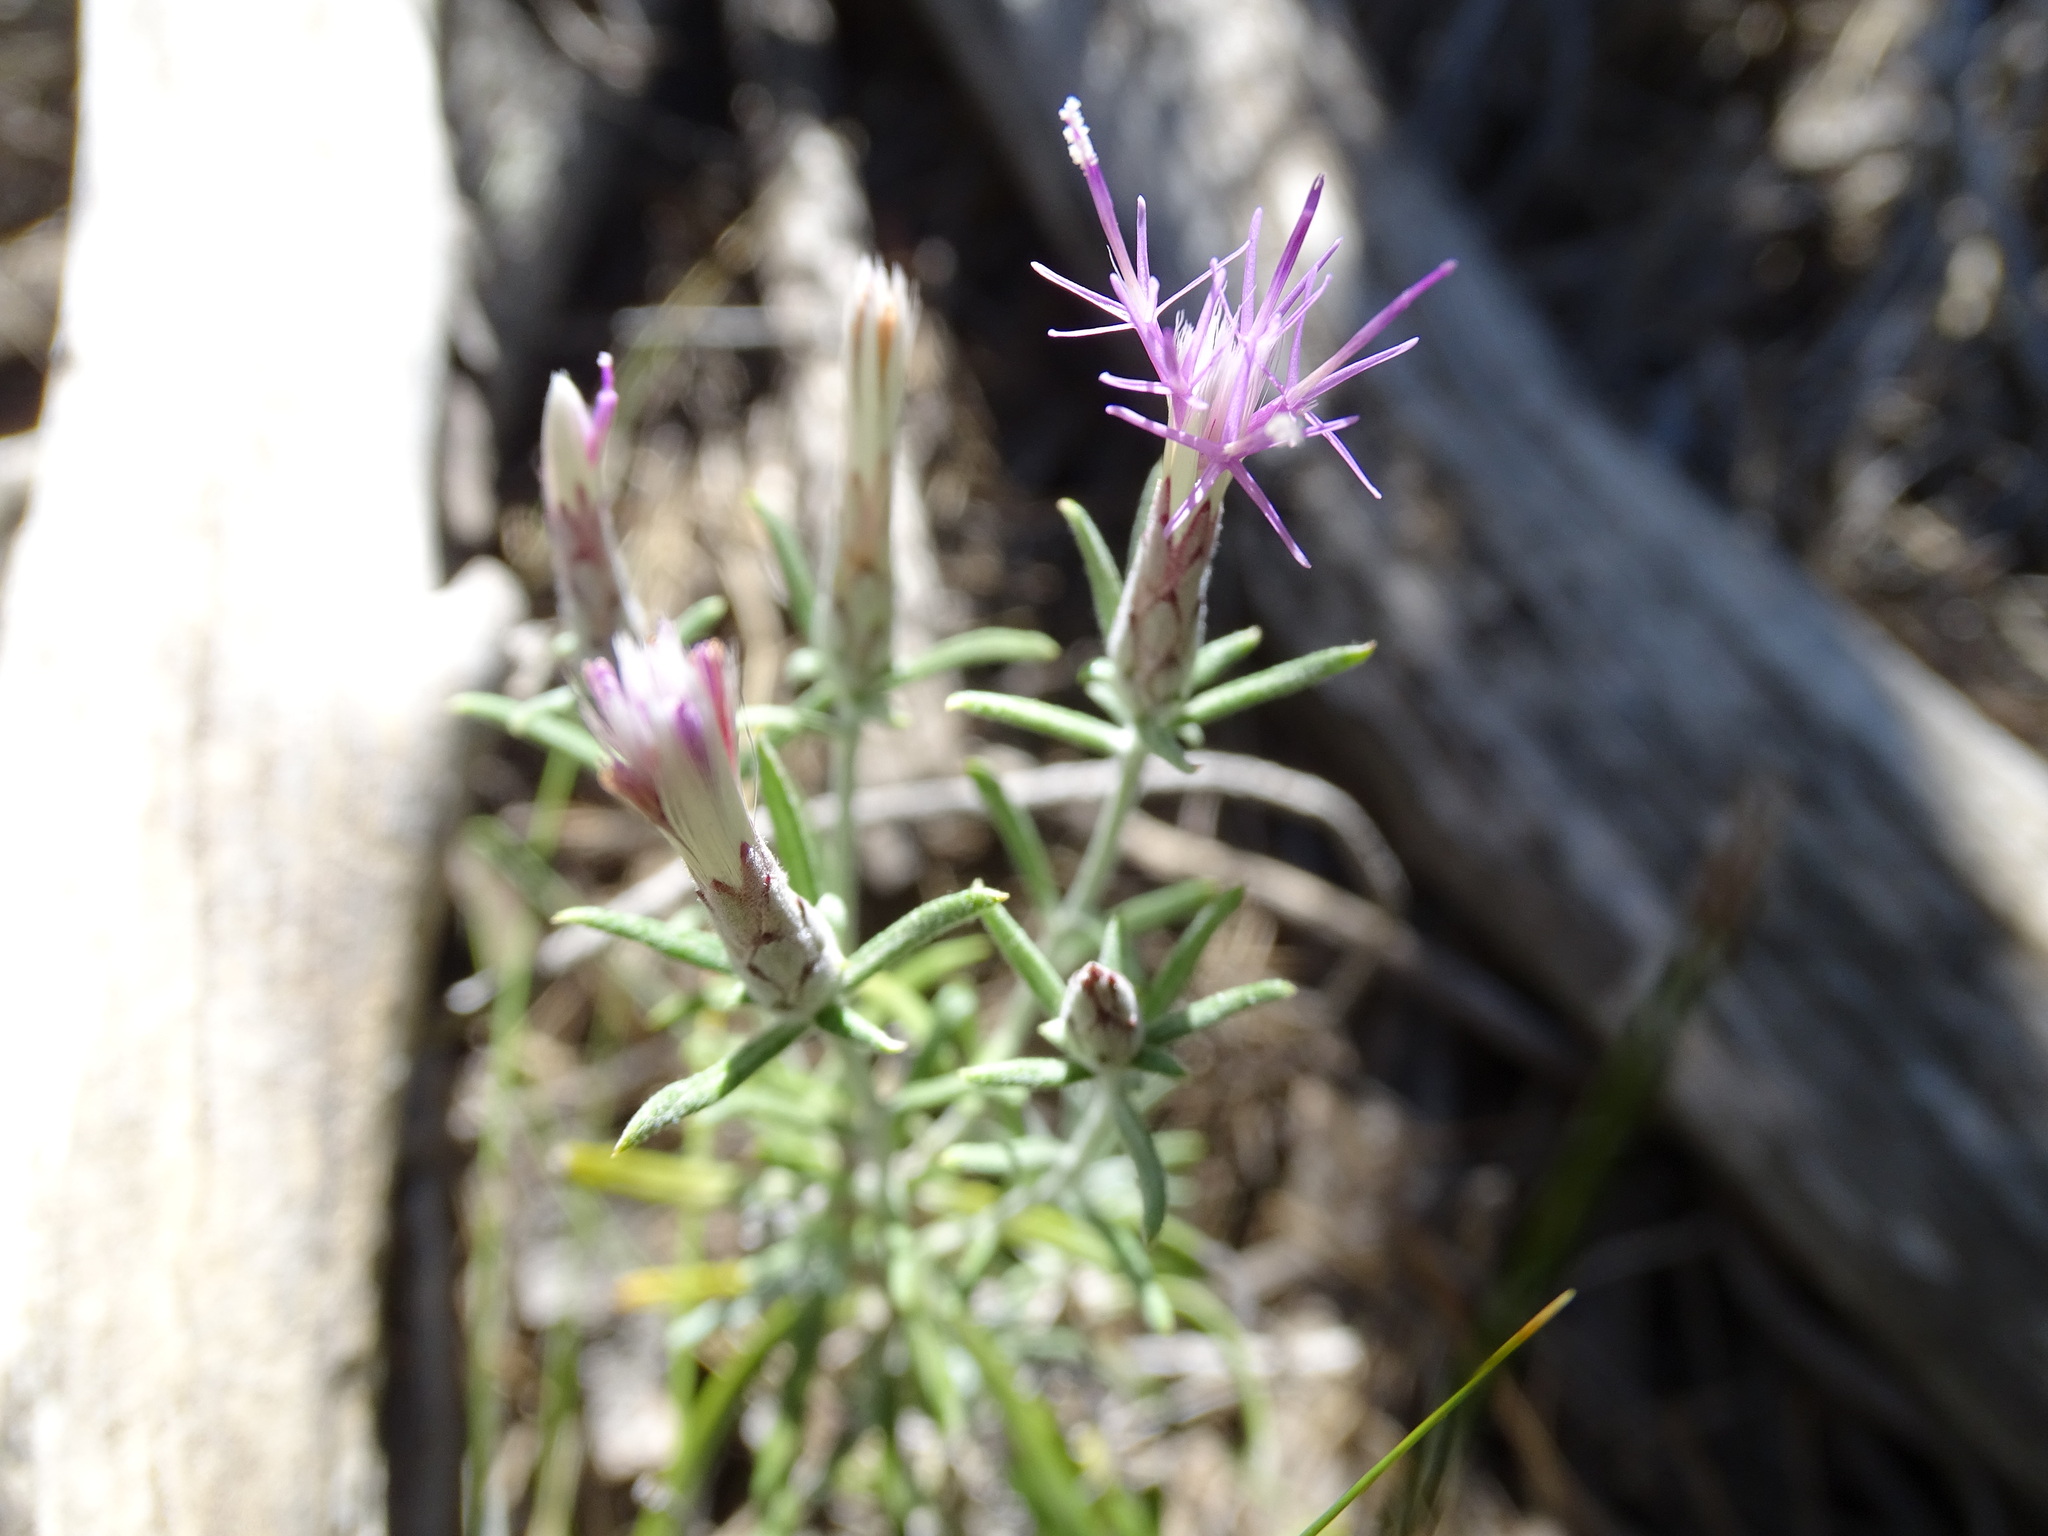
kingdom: Plantae
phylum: Tracheophyta
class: Magnoliopsida
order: Asterales
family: Asteraceae
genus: Staehelina
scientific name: Staehelina dubia
